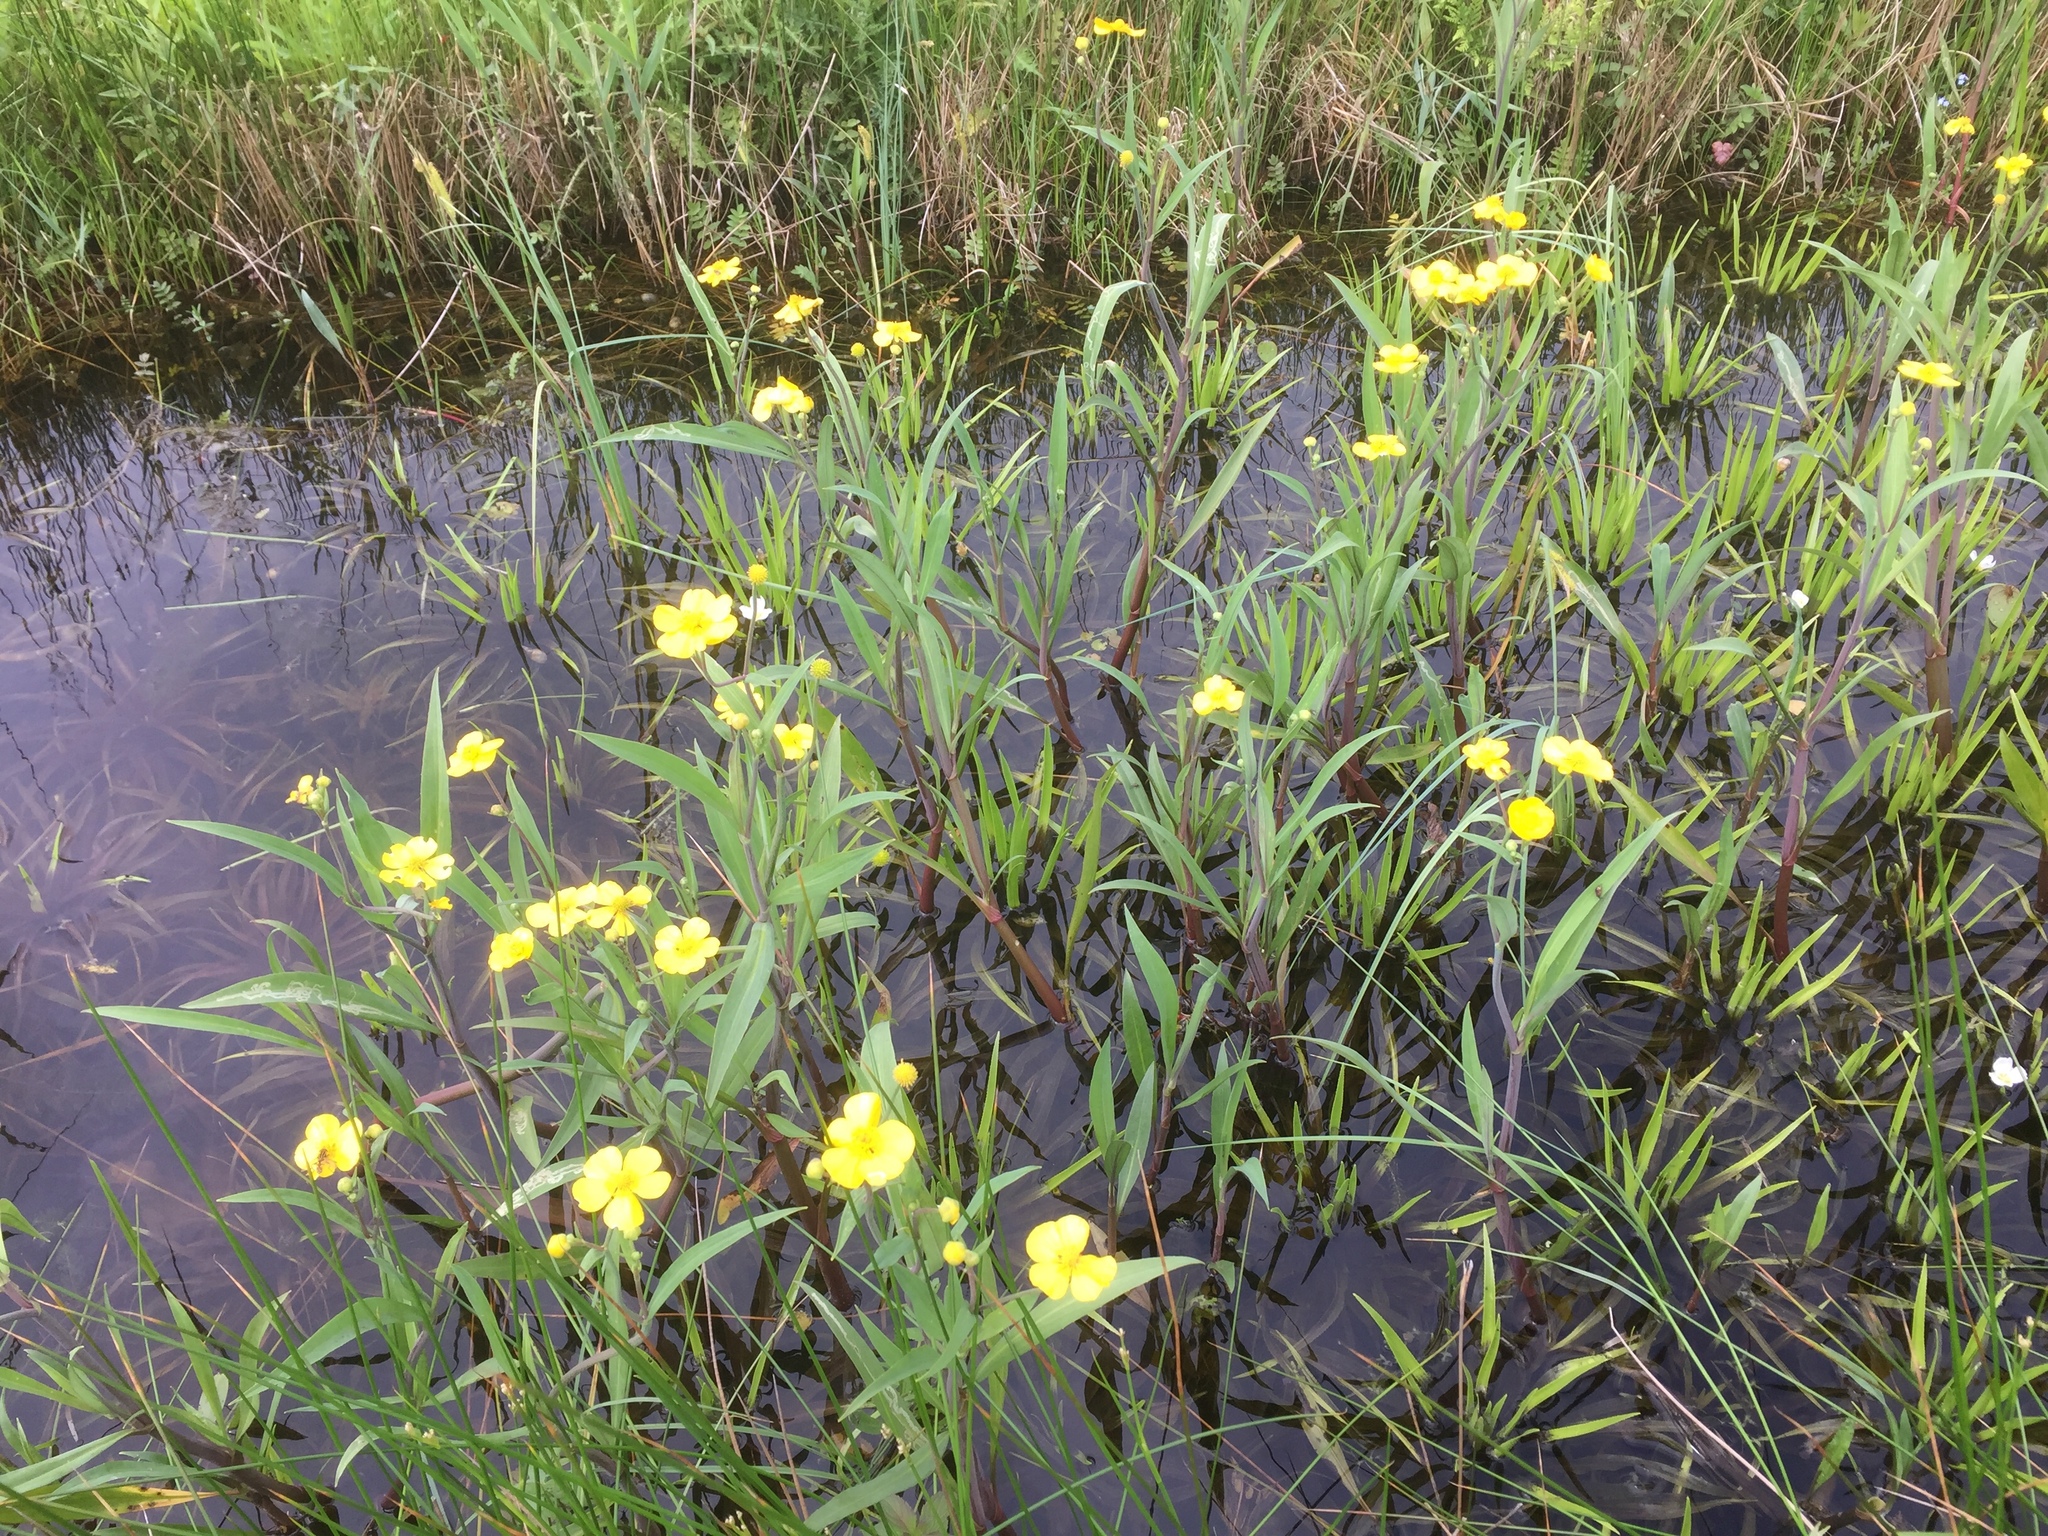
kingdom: Plantae
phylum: Tracheophyta
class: Magnoliopsida
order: Ranunculales
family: Ranunculaceae
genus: Ranunculus
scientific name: Ranunculus lingua
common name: Greater spearwort
